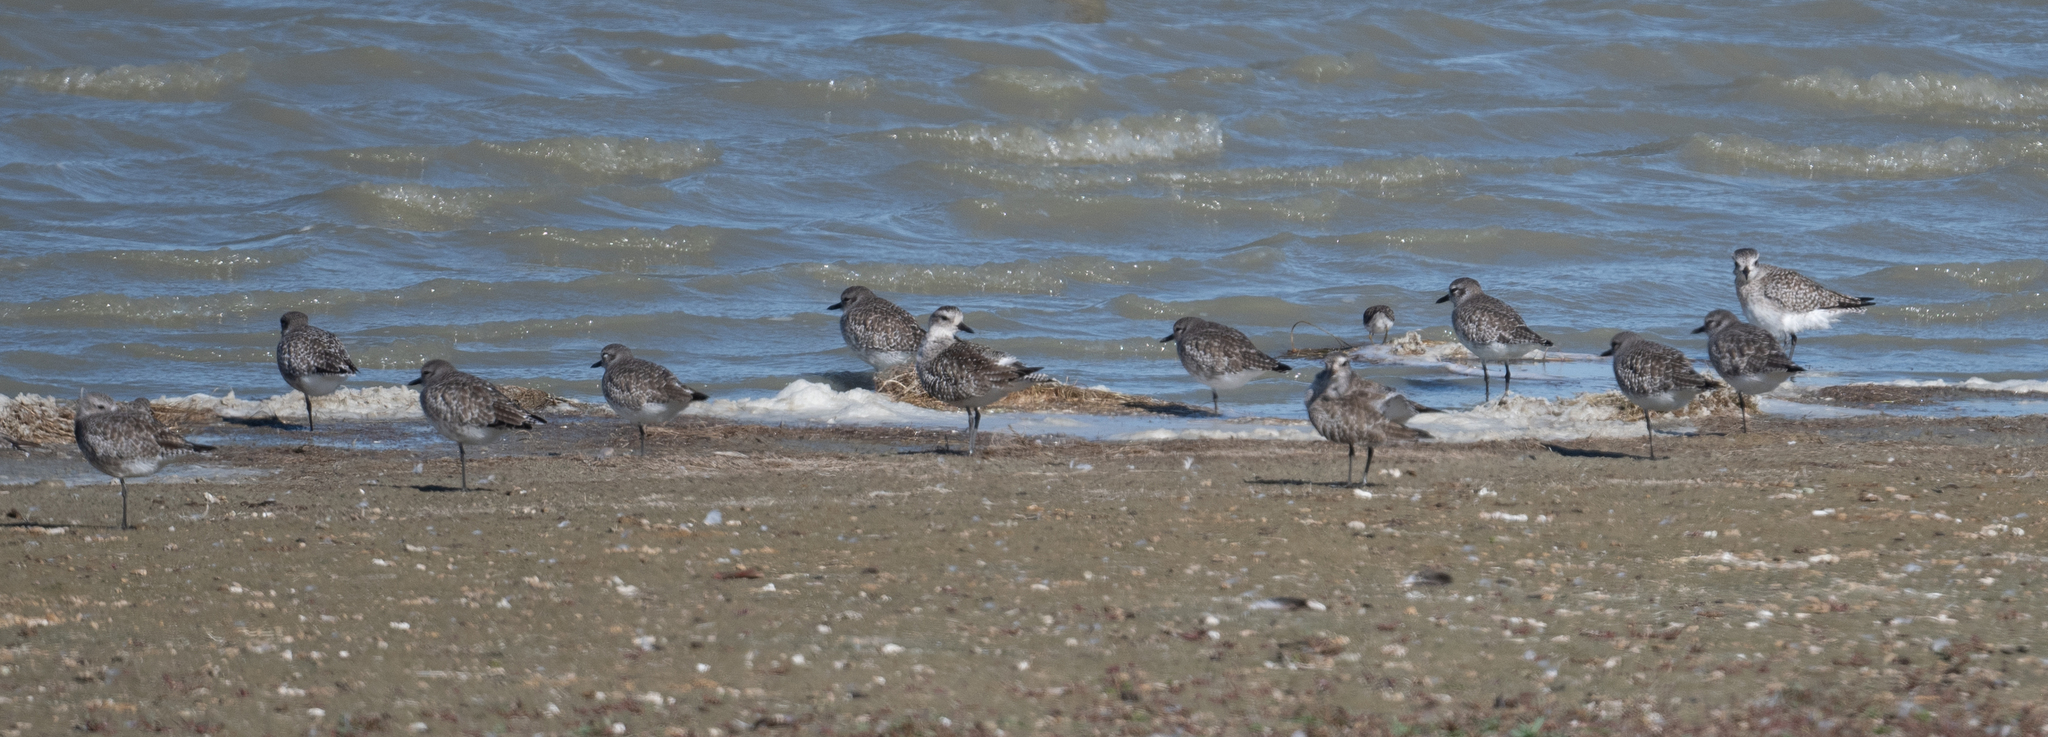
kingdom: Animalia
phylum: Chordata
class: Aves
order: Charadriiformes
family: Charadriidae
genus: Pluvialis
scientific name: Pluvialis squatarola
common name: Grey plover
